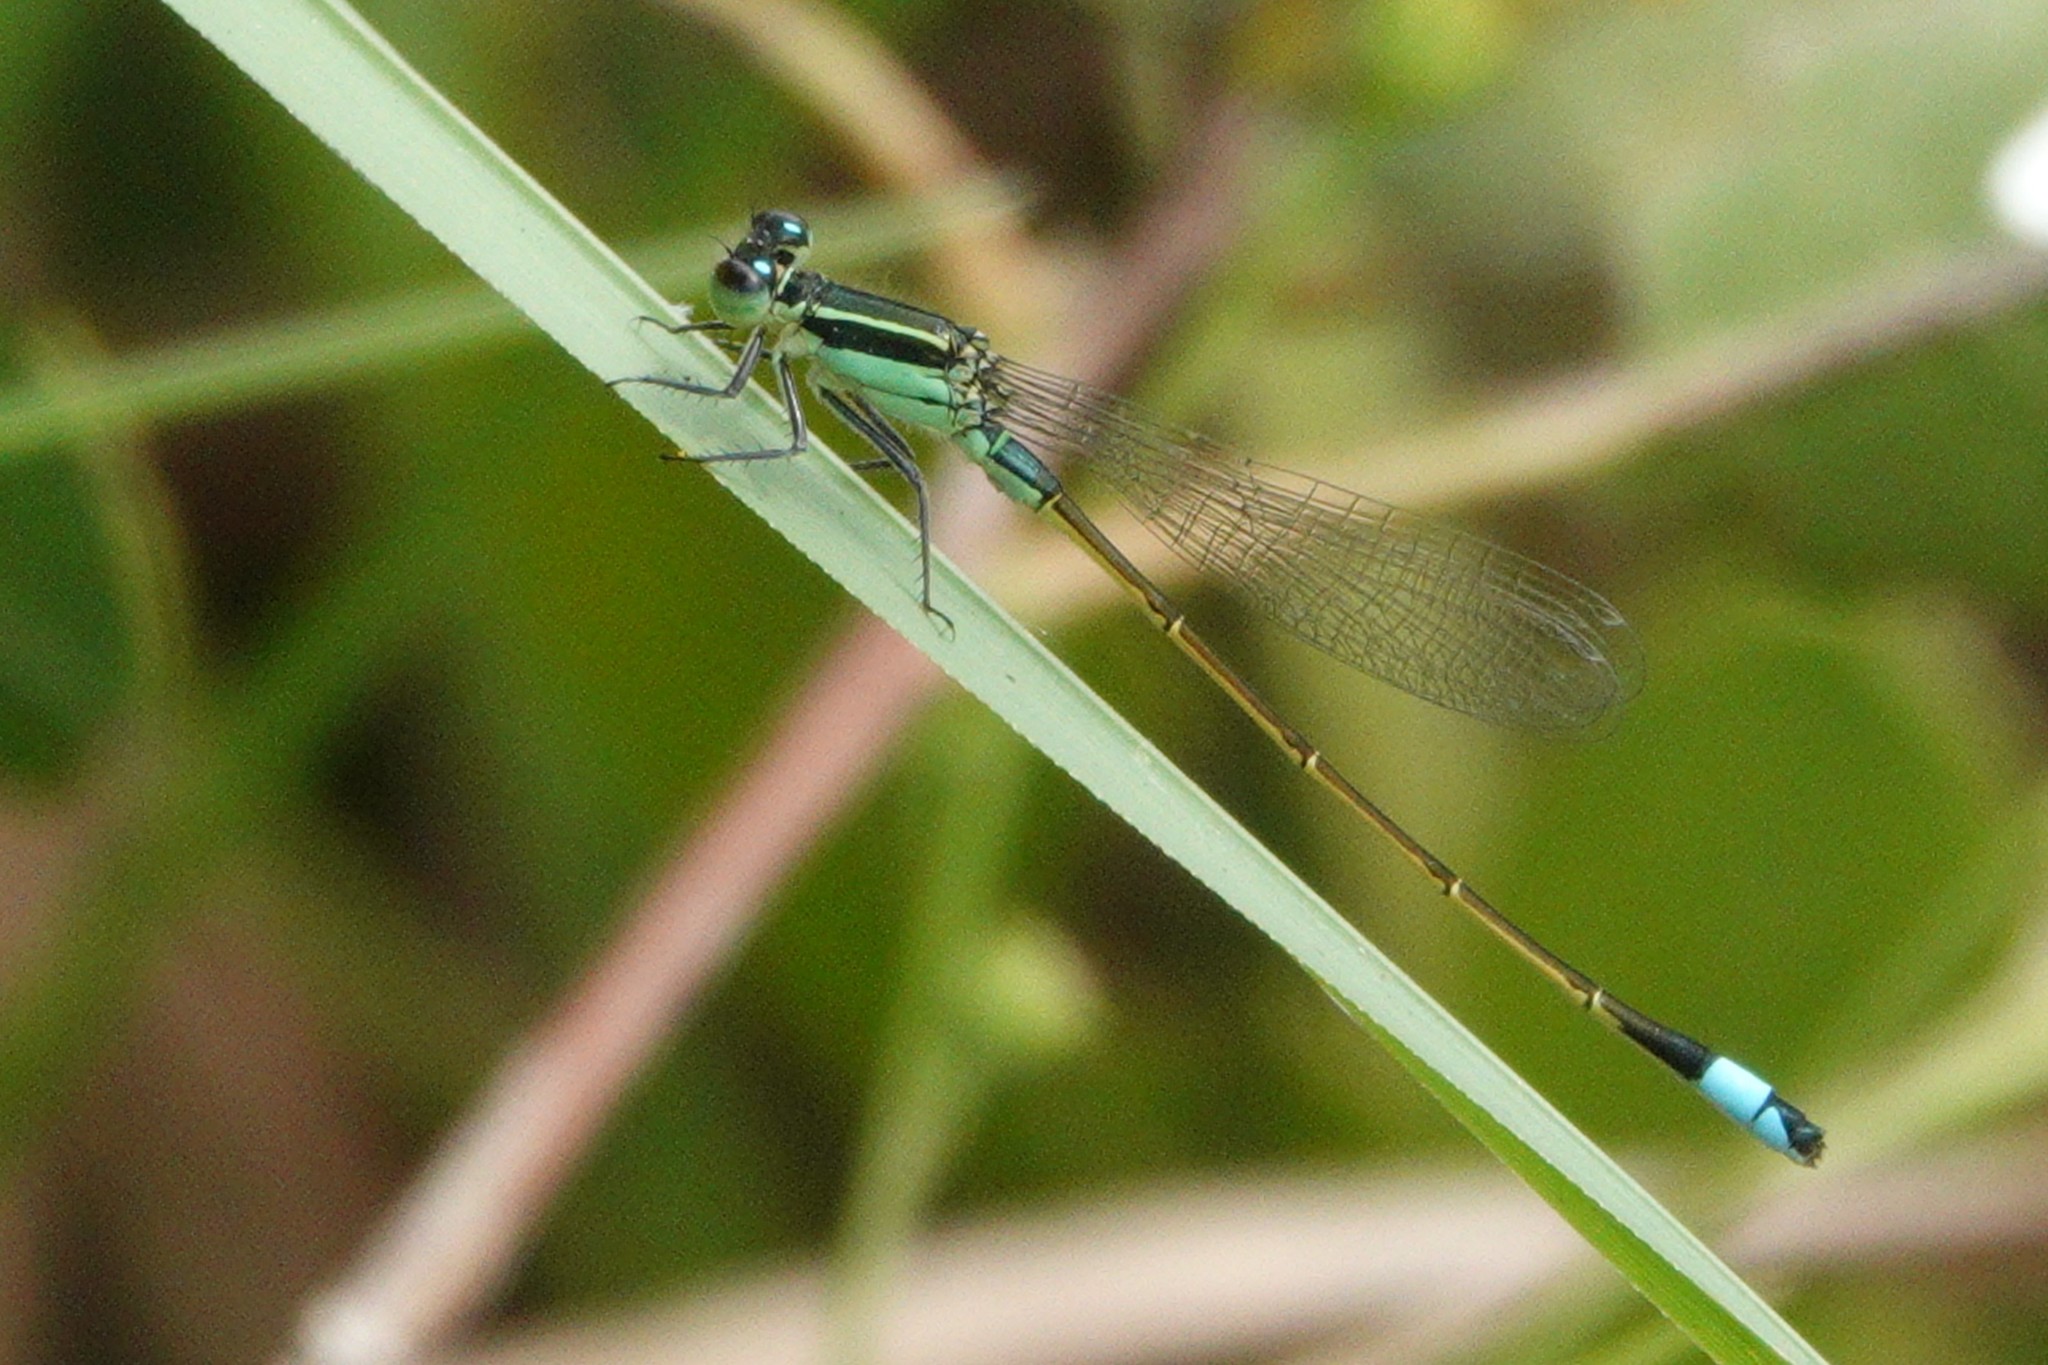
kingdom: Animalia
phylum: Arthropoda
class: Insecta
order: Odonata
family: Coenagrionidae
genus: Ischnura
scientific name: Ischnura ramburii
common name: Rambur's forktail
